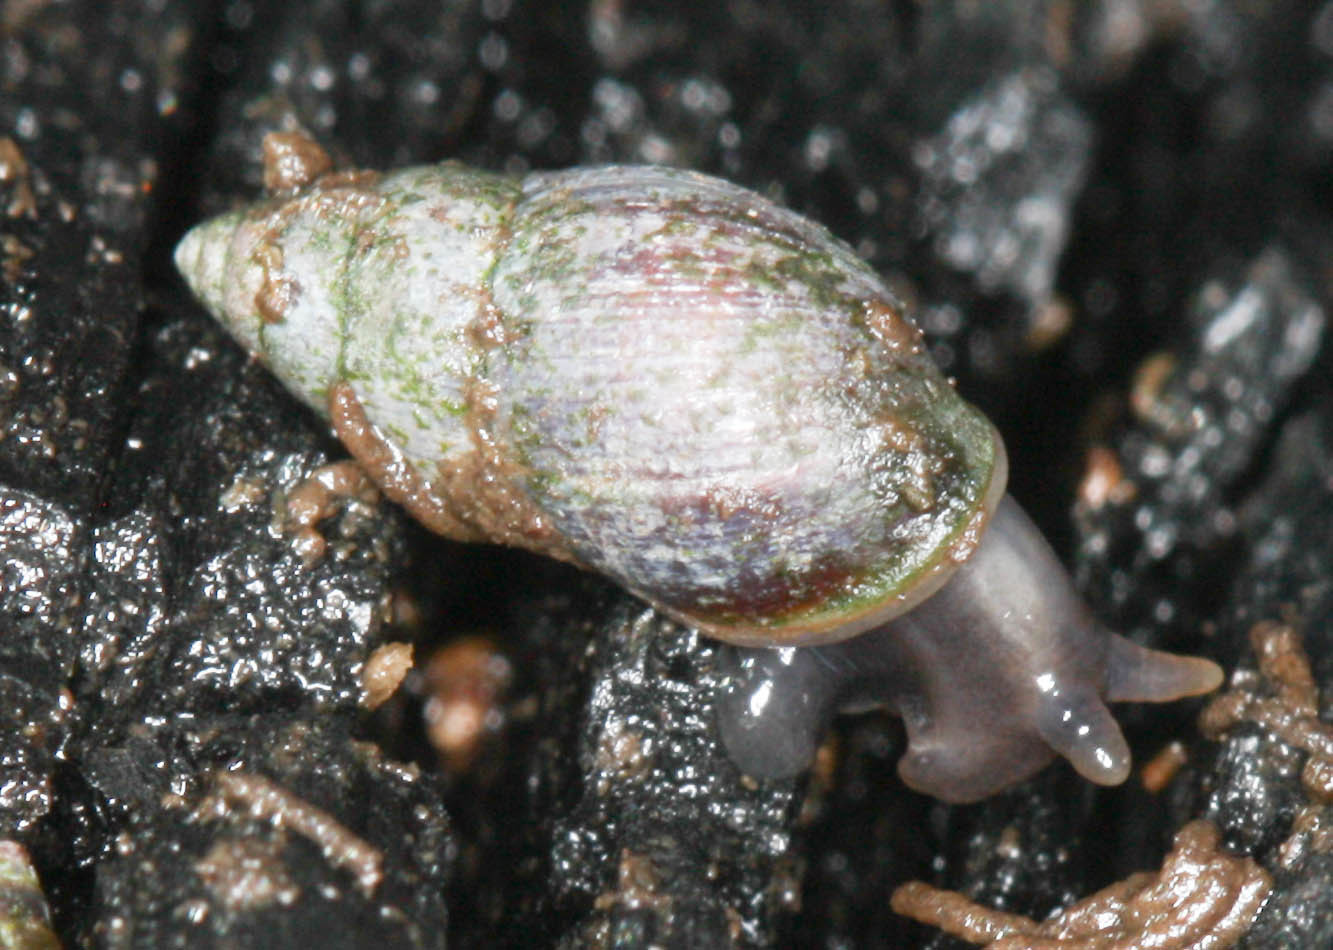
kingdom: Animalia
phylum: Mollusca
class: Gastropoda
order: Ellobiida
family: Ellobiidae
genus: Myosotella
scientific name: Myosotella myosotis
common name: Mouse-eared snail
